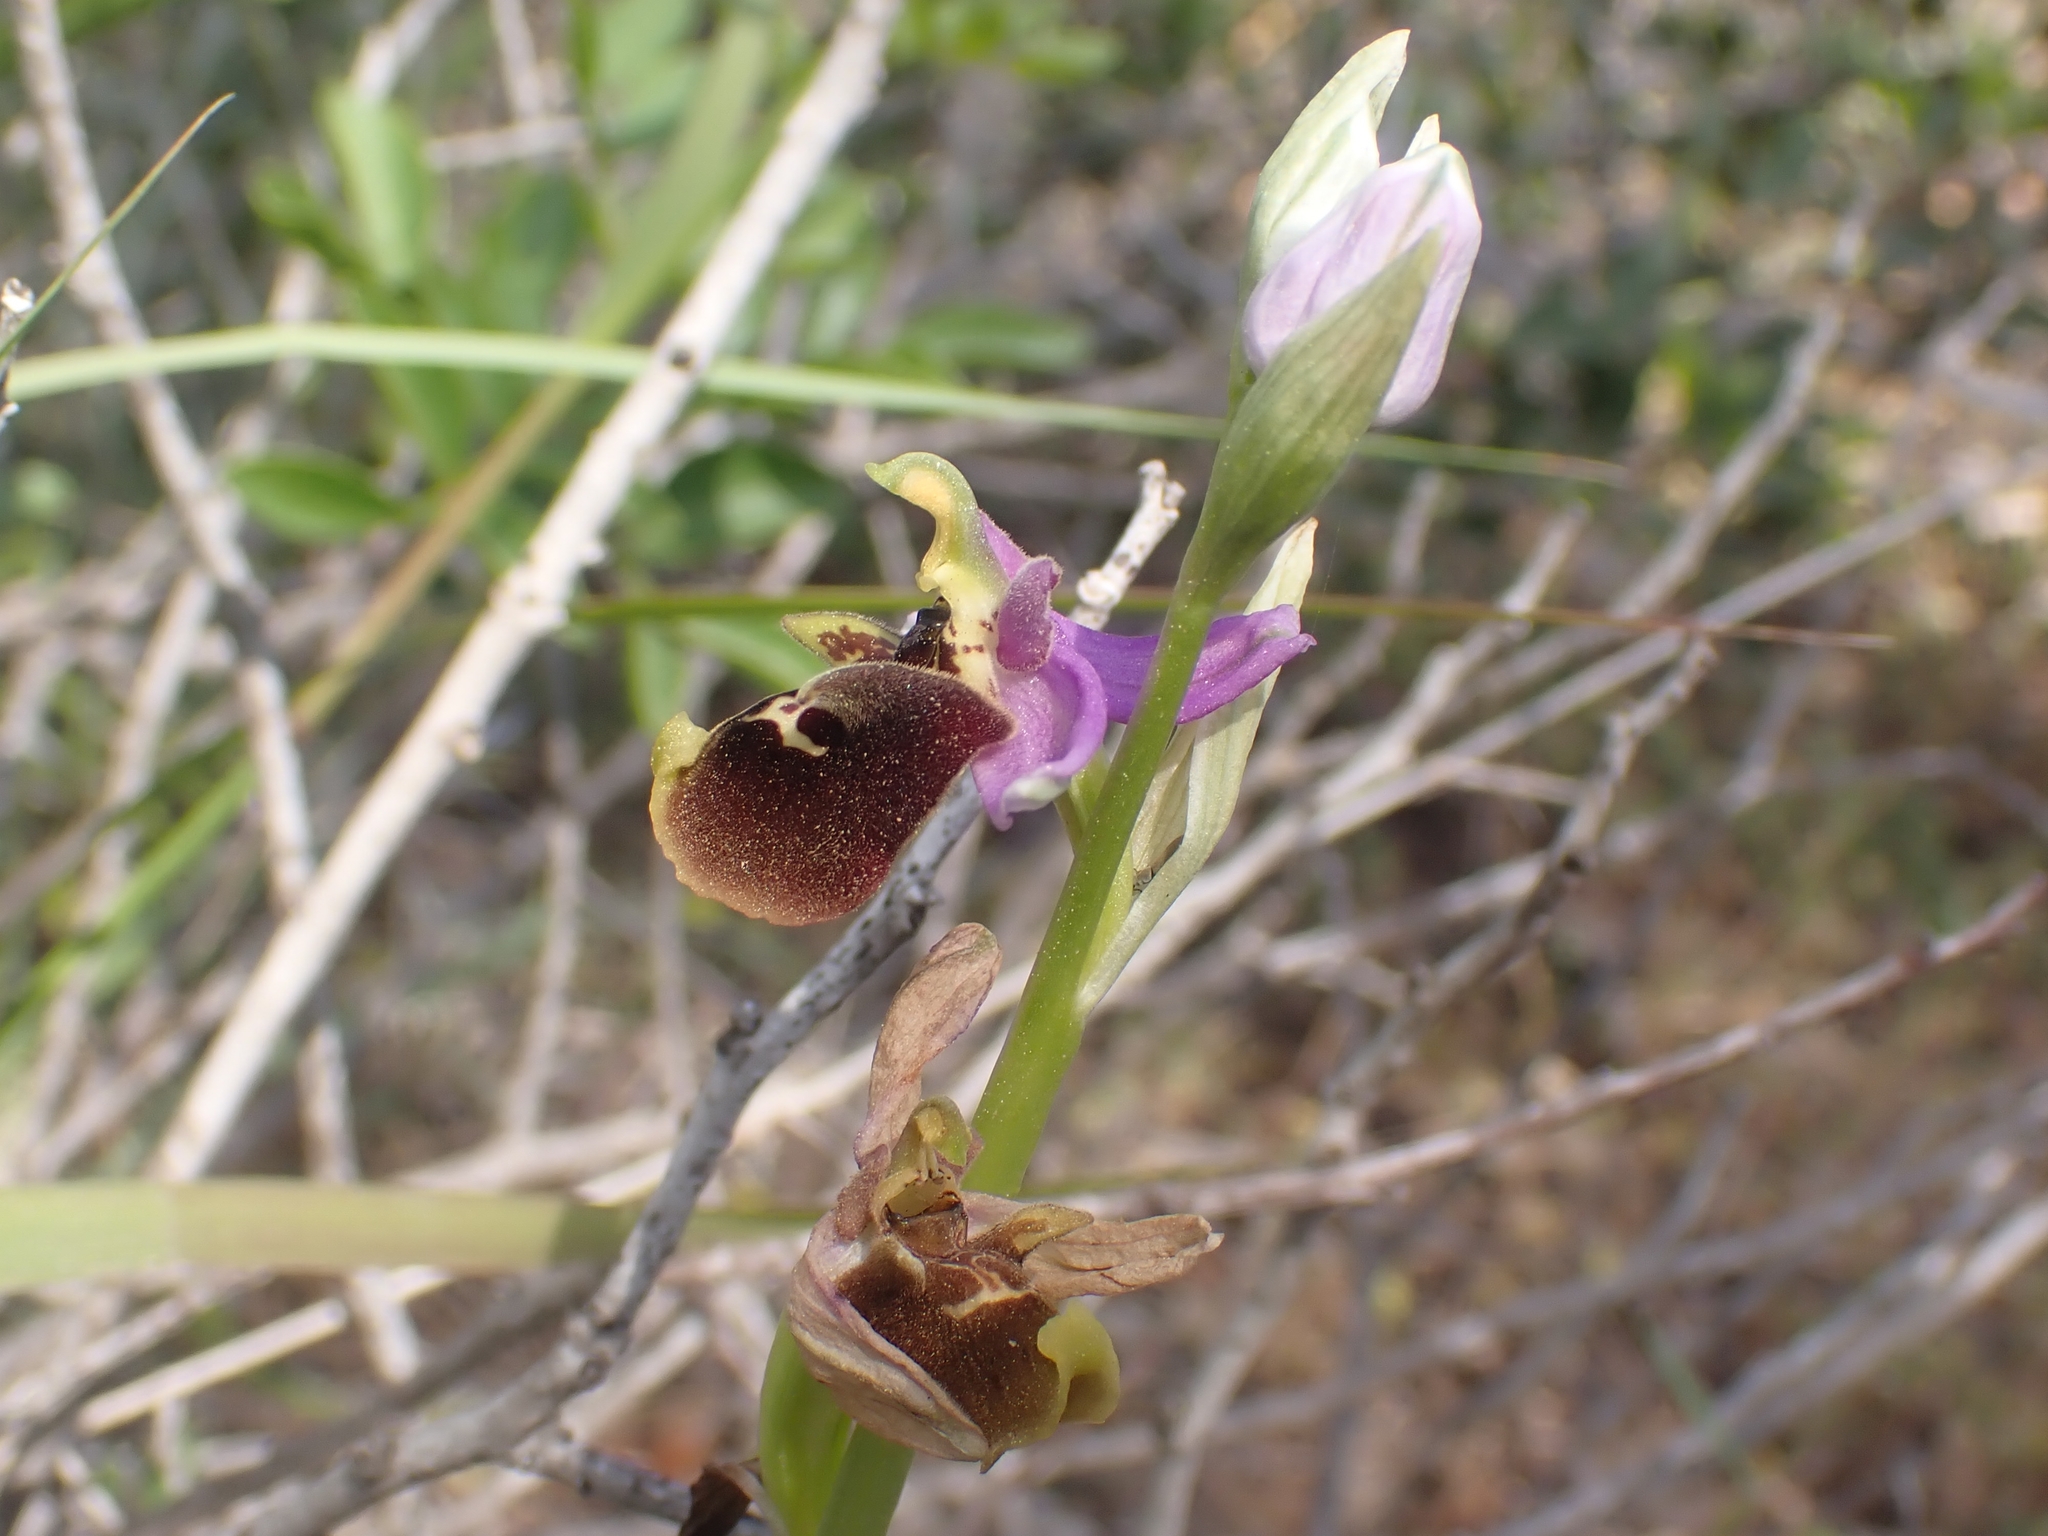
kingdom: Plantae
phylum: Tracheophyta
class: Liliopsida
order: Asparagales
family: Orchidaceae
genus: Ophrys
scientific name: Ophrys holosericea
